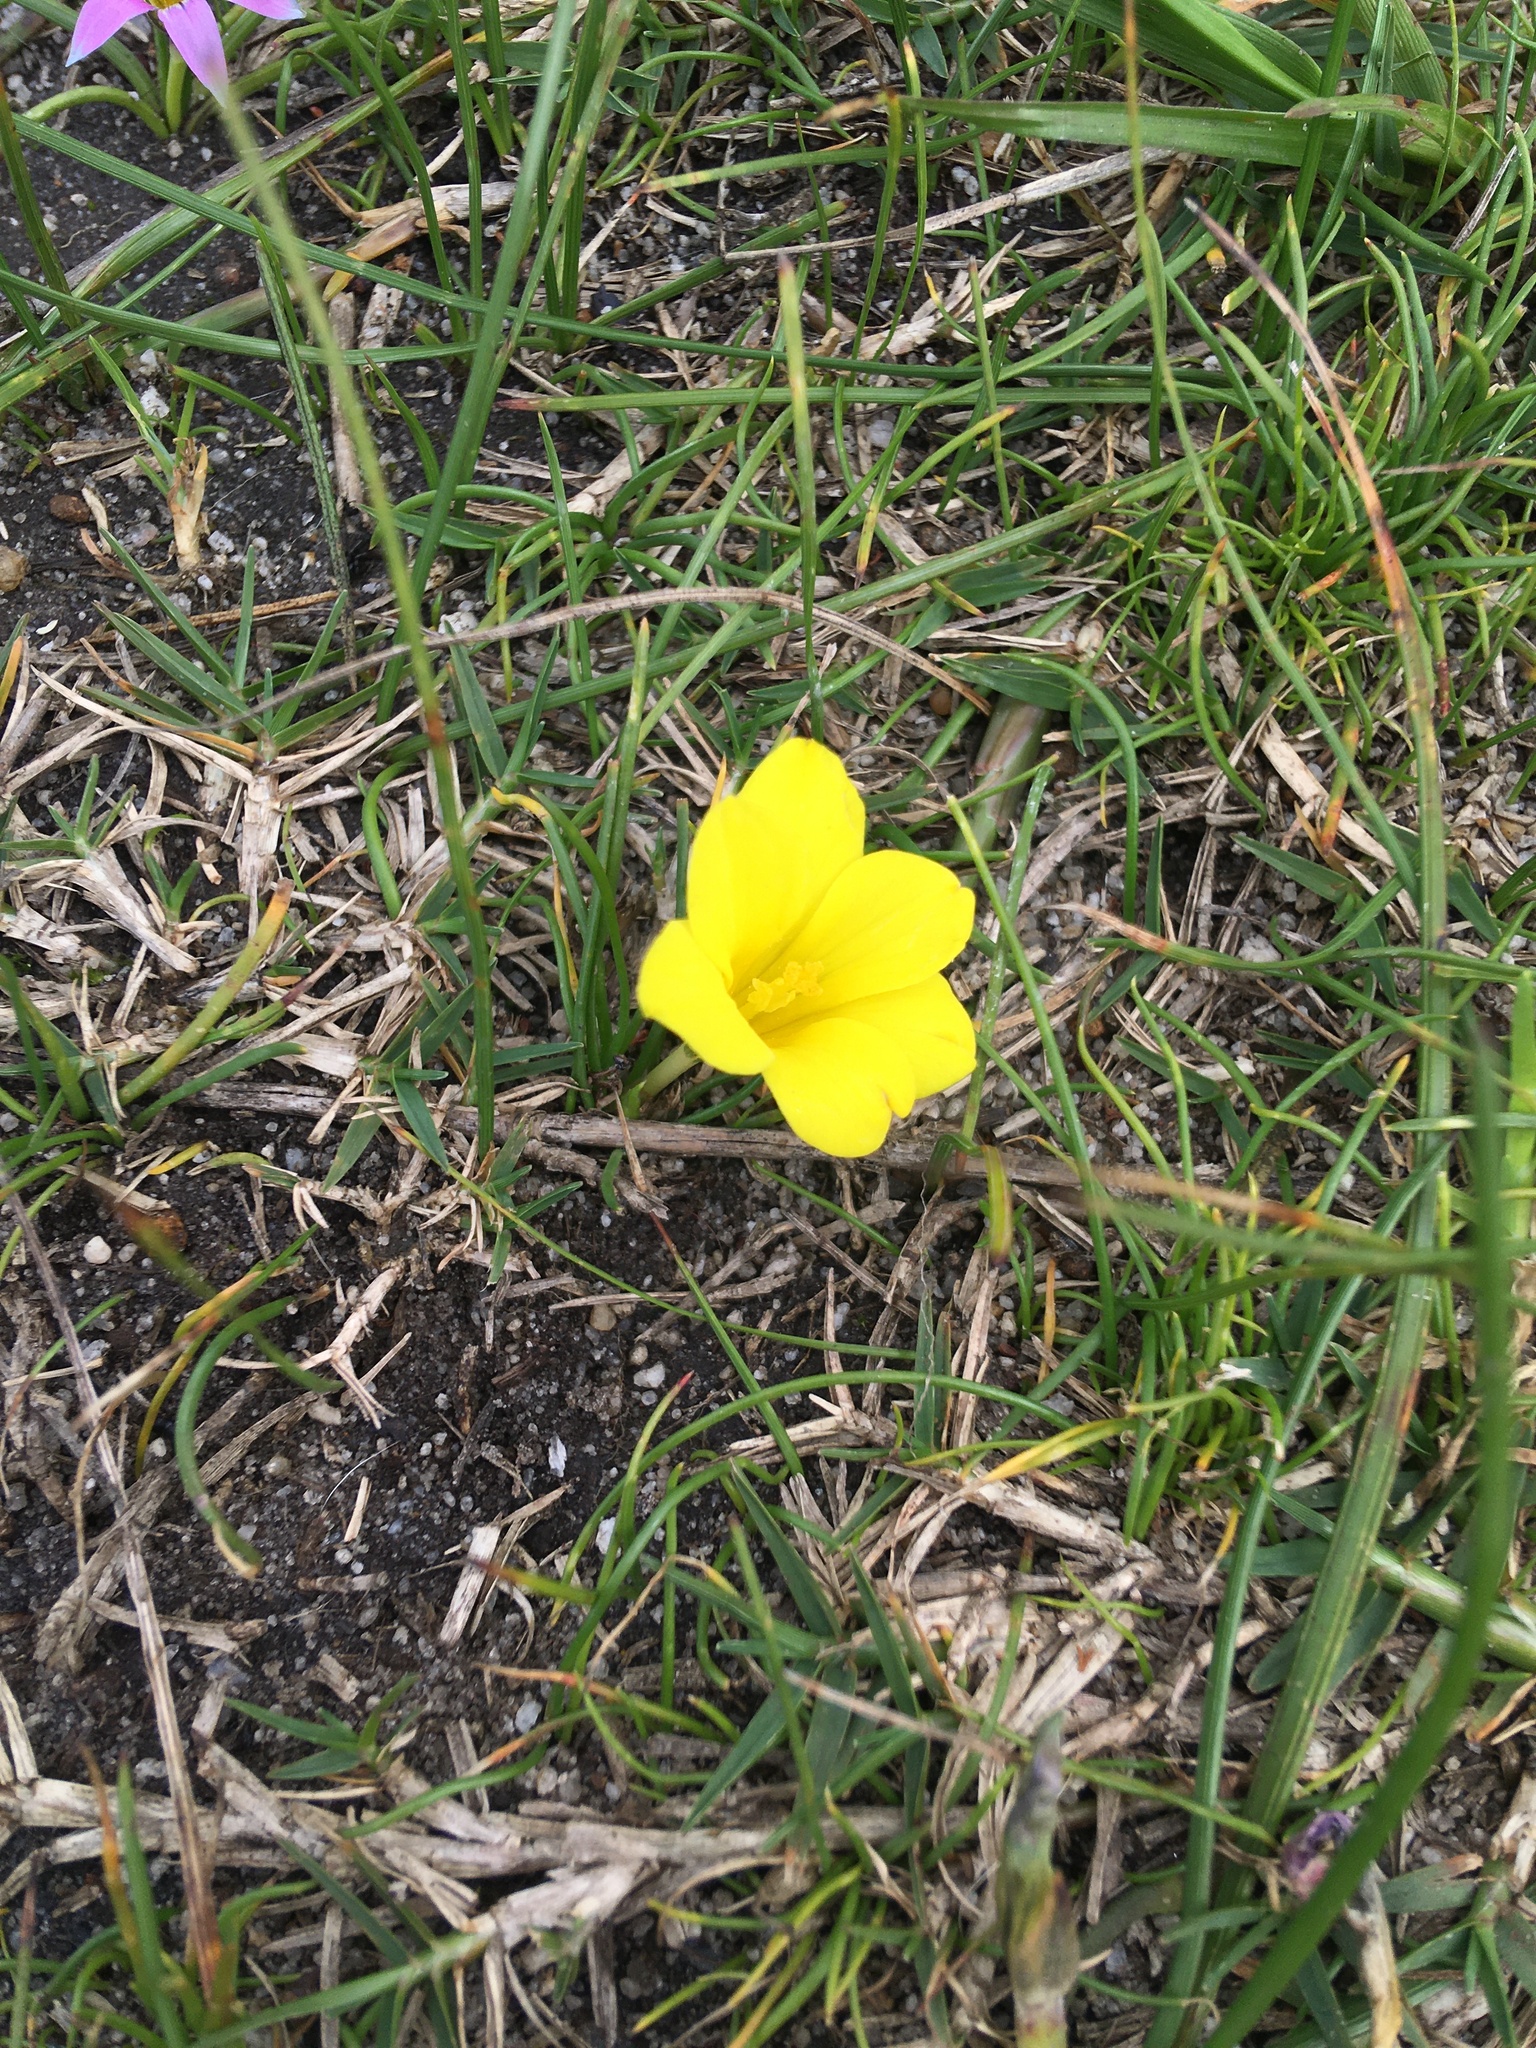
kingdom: Plantae
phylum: Tracheophyta
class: Liliopsida
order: Asparagales
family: Iridaceae
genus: Moraea
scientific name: Moraea fugacissima
